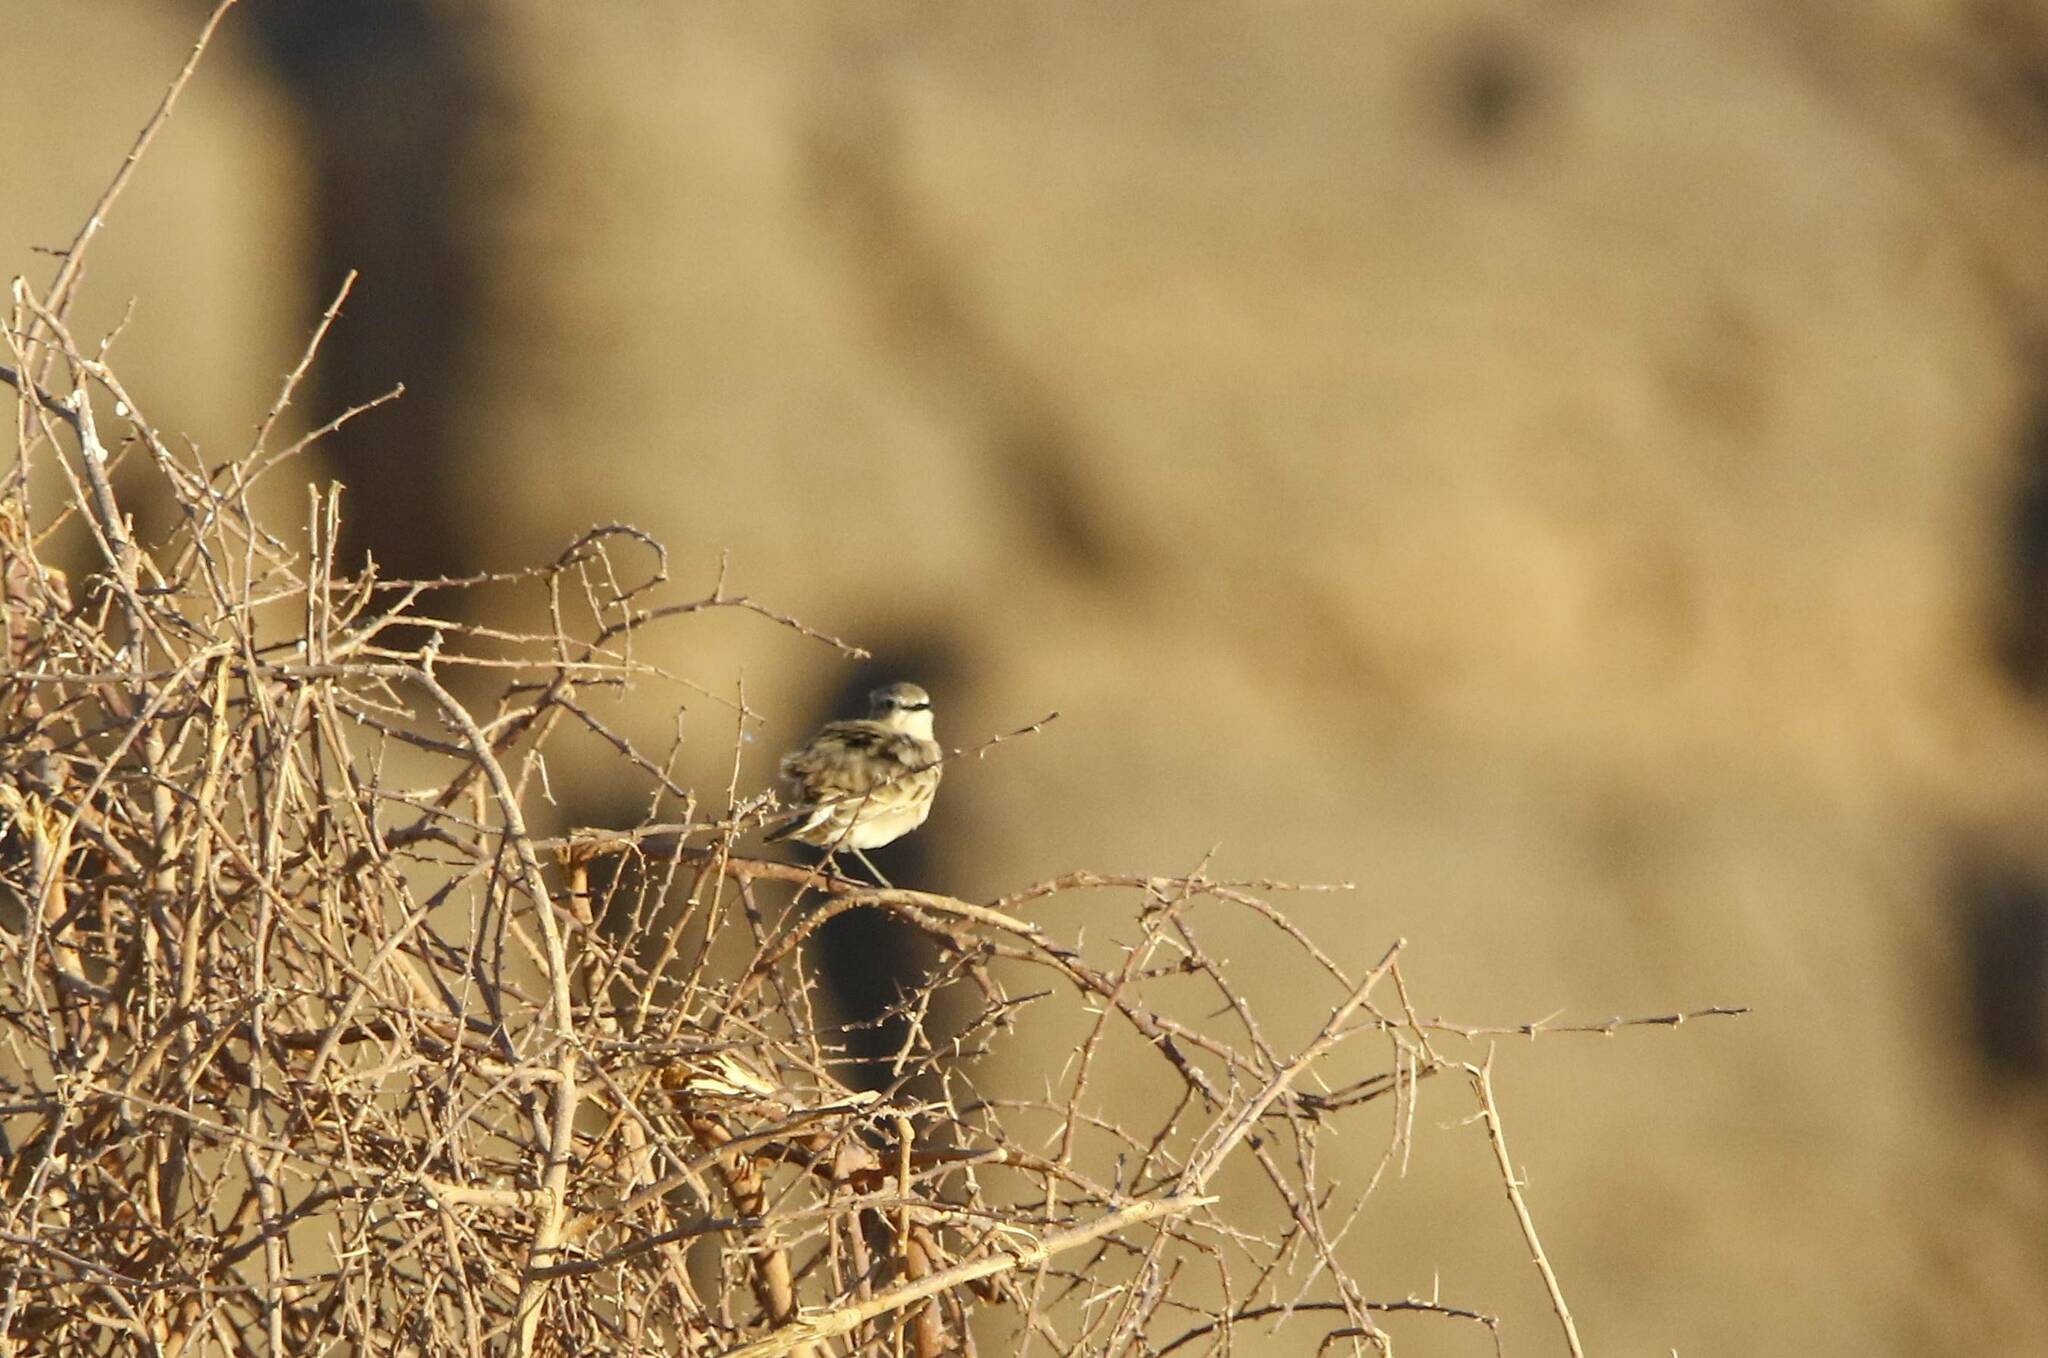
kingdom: Animalia
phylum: Chordata
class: Aves
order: Passeriformes
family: Muscicapidae
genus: Oenanthe
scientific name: Oenanthe isabellina
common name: Isabelline wheatear
